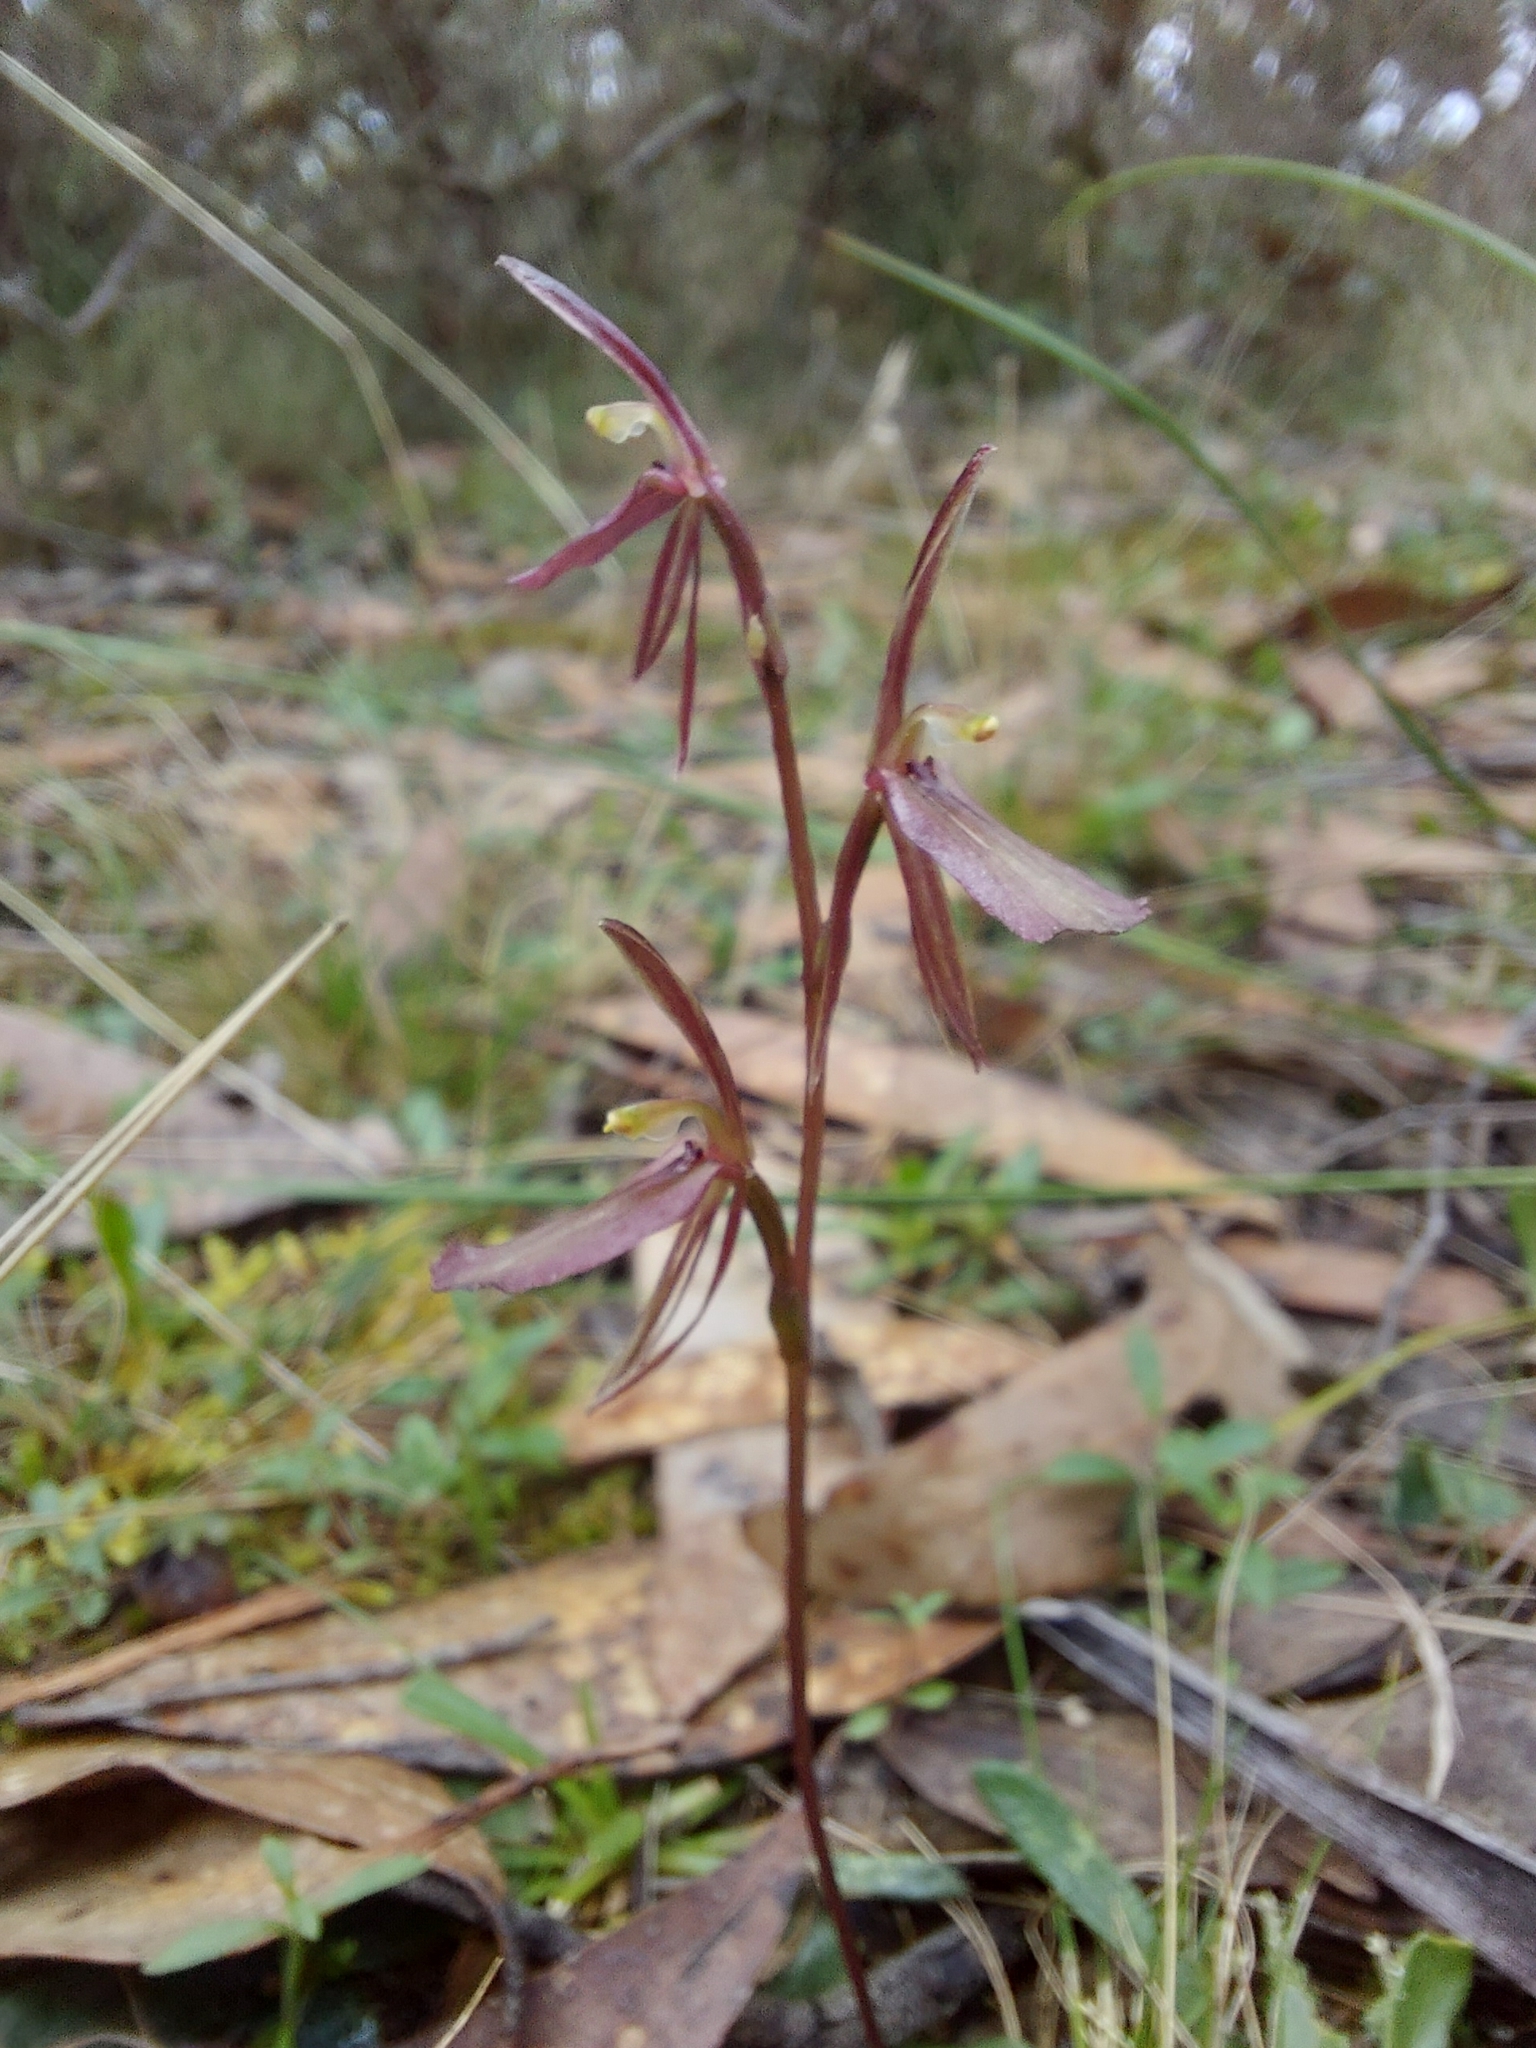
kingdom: Plantae
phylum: Tracheophyta
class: Liliopsida
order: Asparagales
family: Orchidaceae
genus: Cyrtostylis
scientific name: Cyrtostylis reniformis
